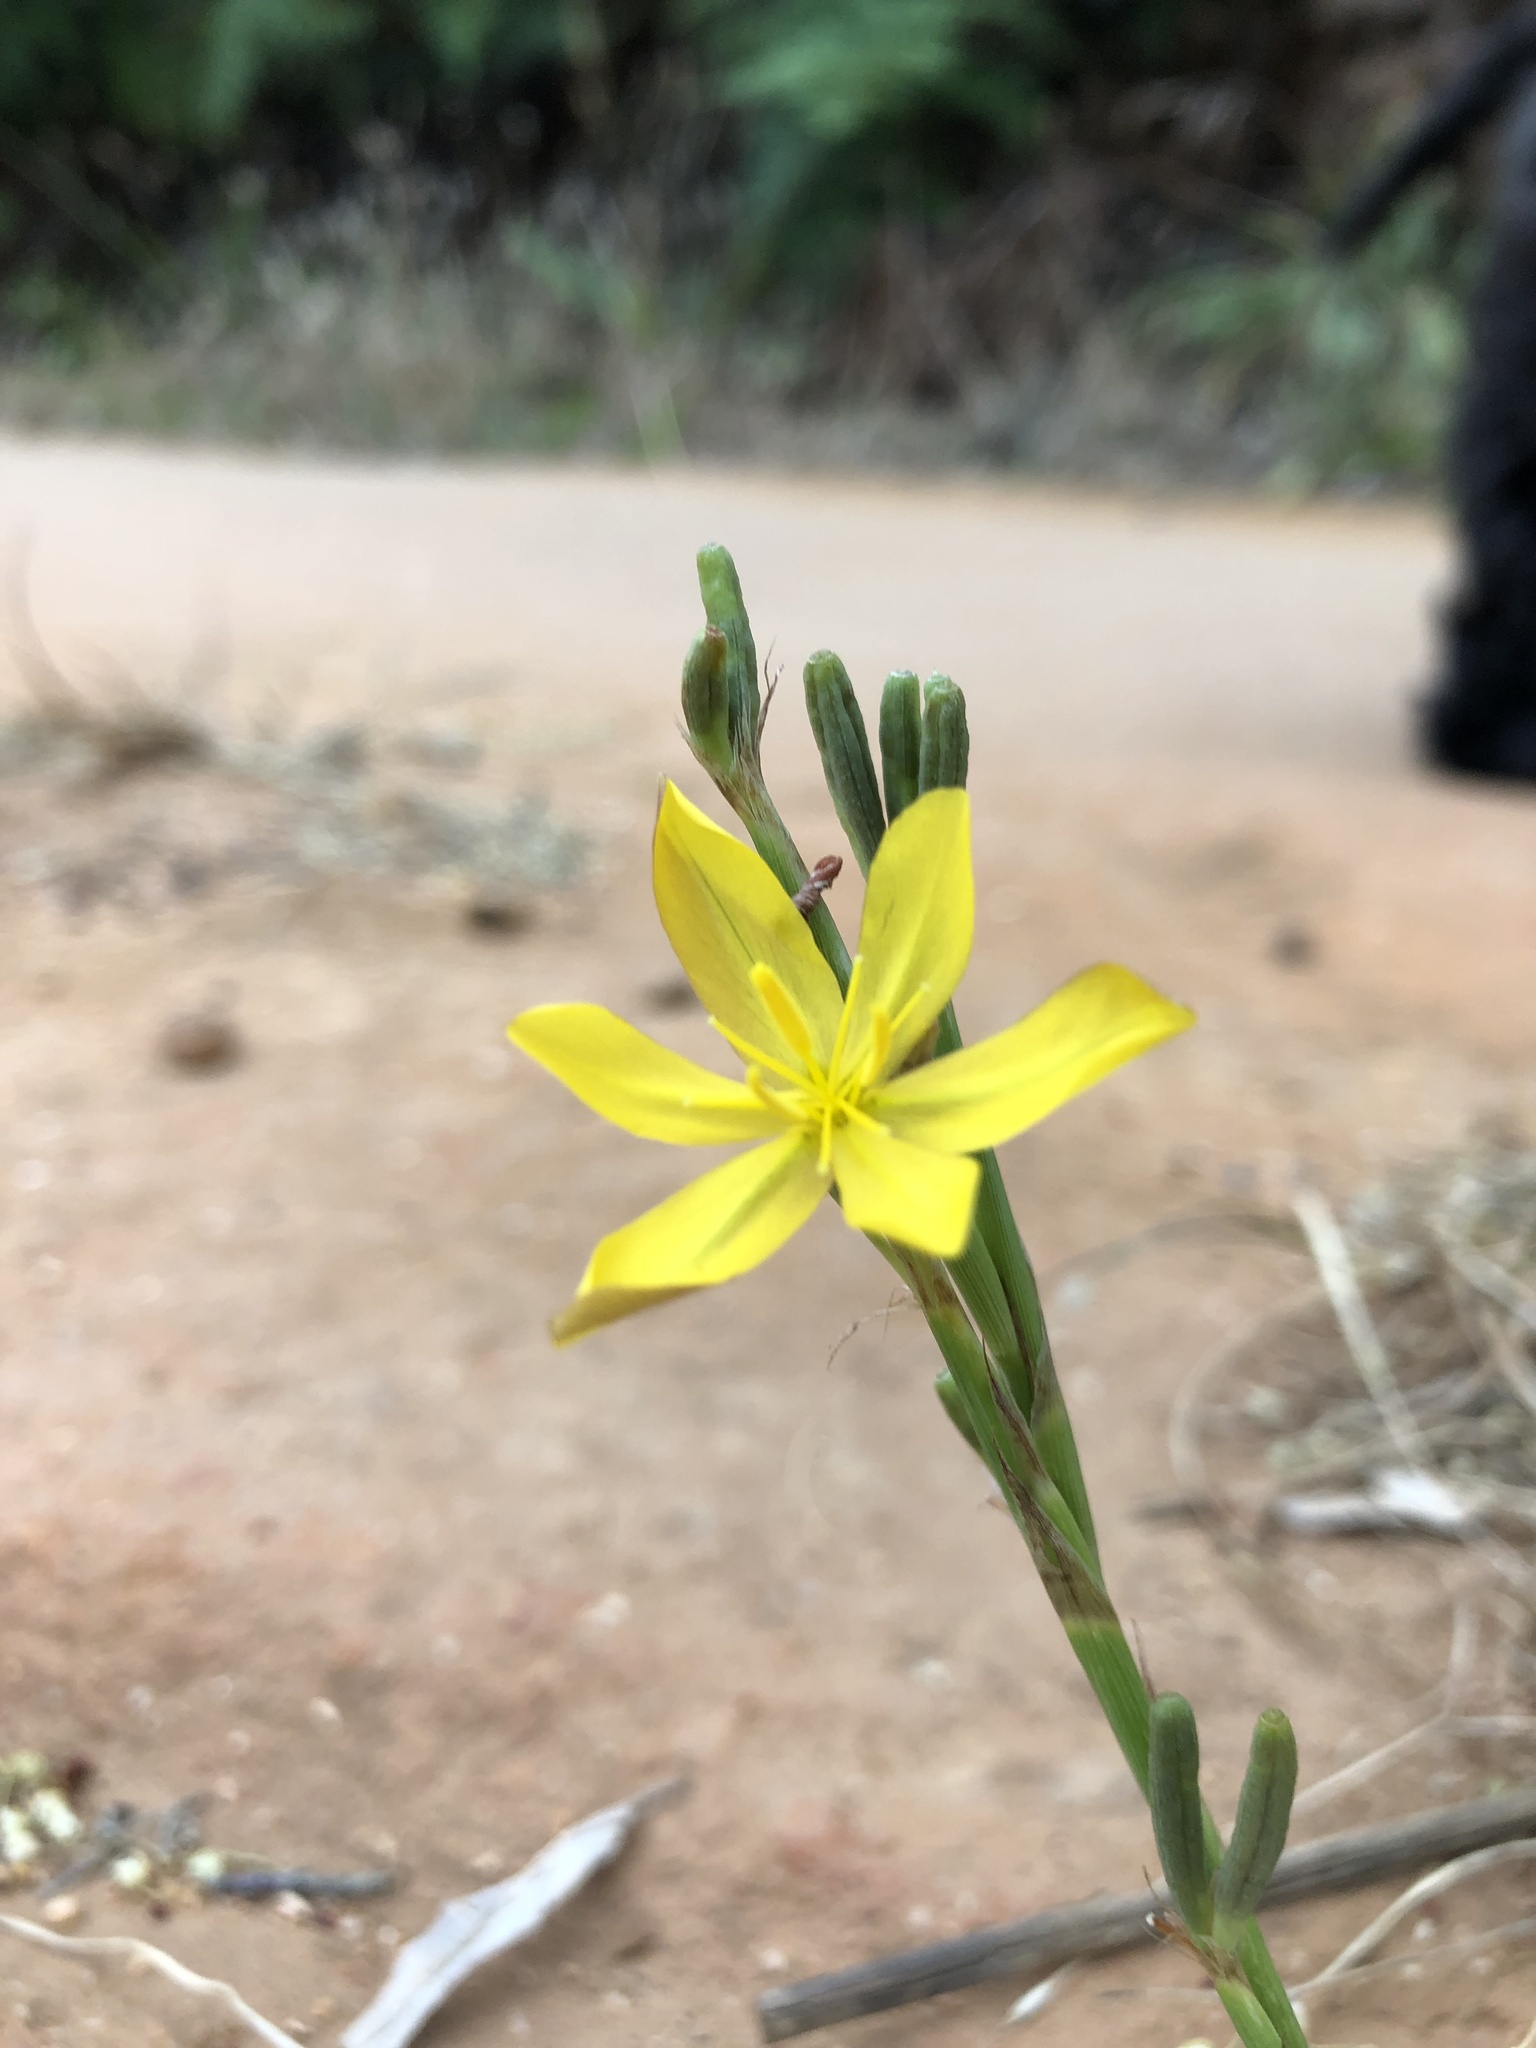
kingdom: Plantae
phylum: Tracheophyta
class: Liliopsida
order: Asparagales
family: Iridaceae
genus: Moraea
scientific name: Moraea virgata
